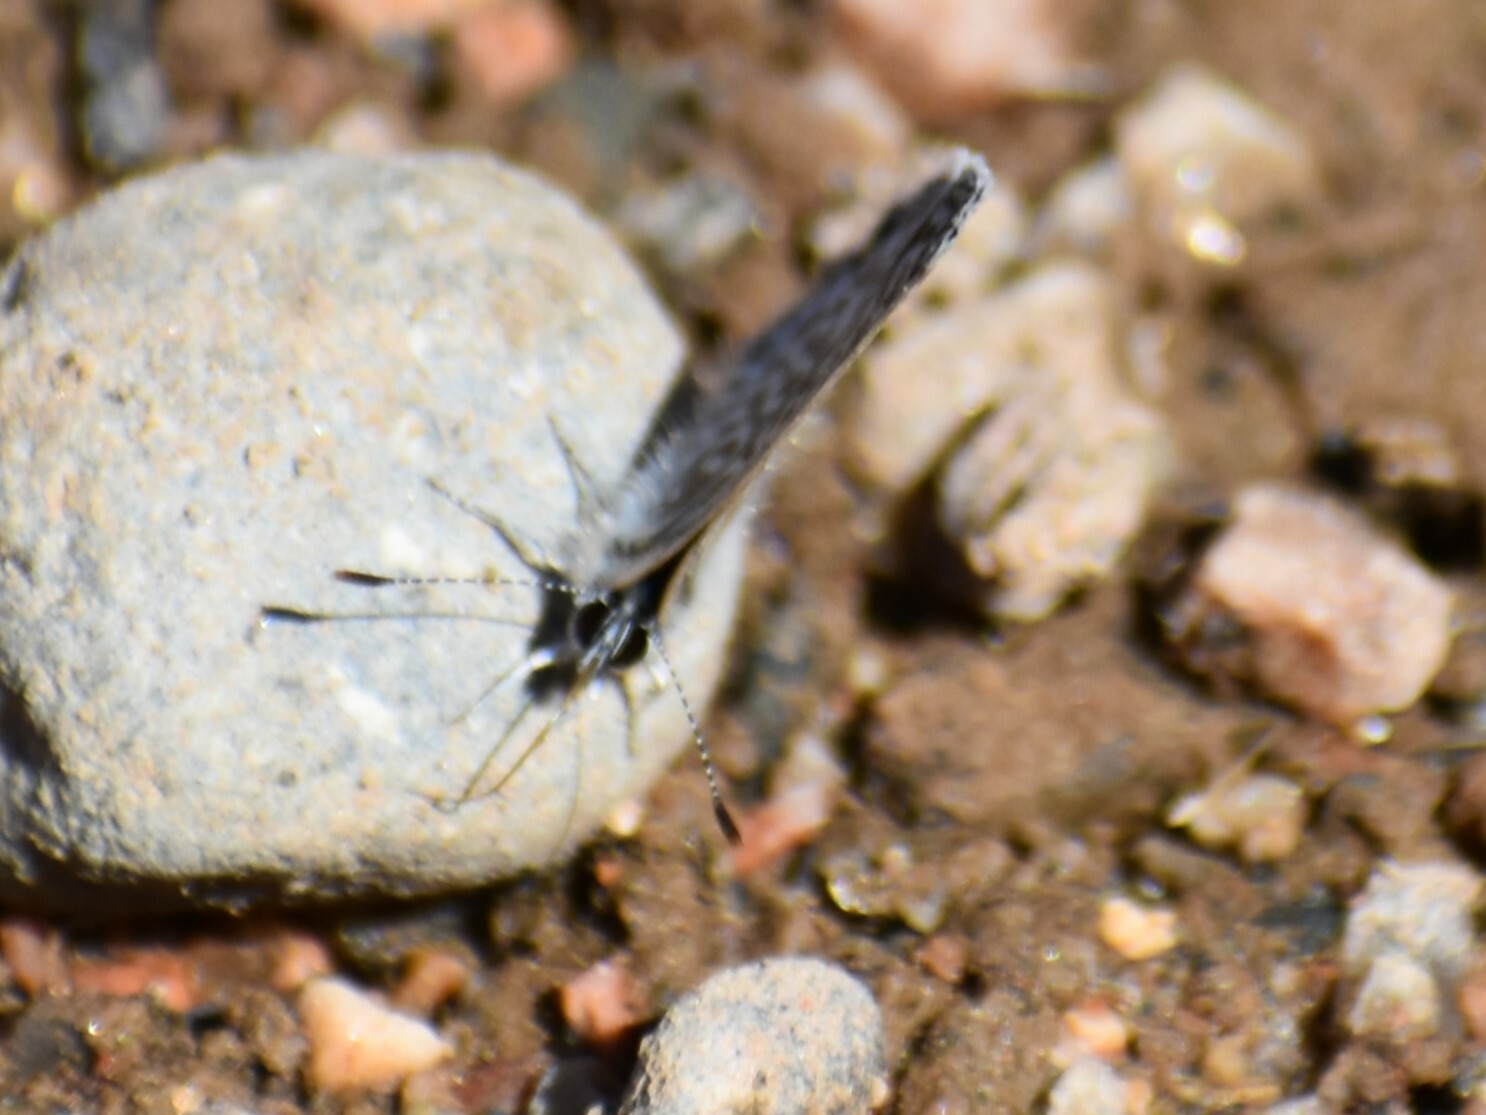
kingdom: Animalia
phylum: Arthropoda
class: Insecta
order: Lepidoptera
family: Lycaenidae
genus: Leptotes
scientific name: Leptotes marina
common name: Marine blue
